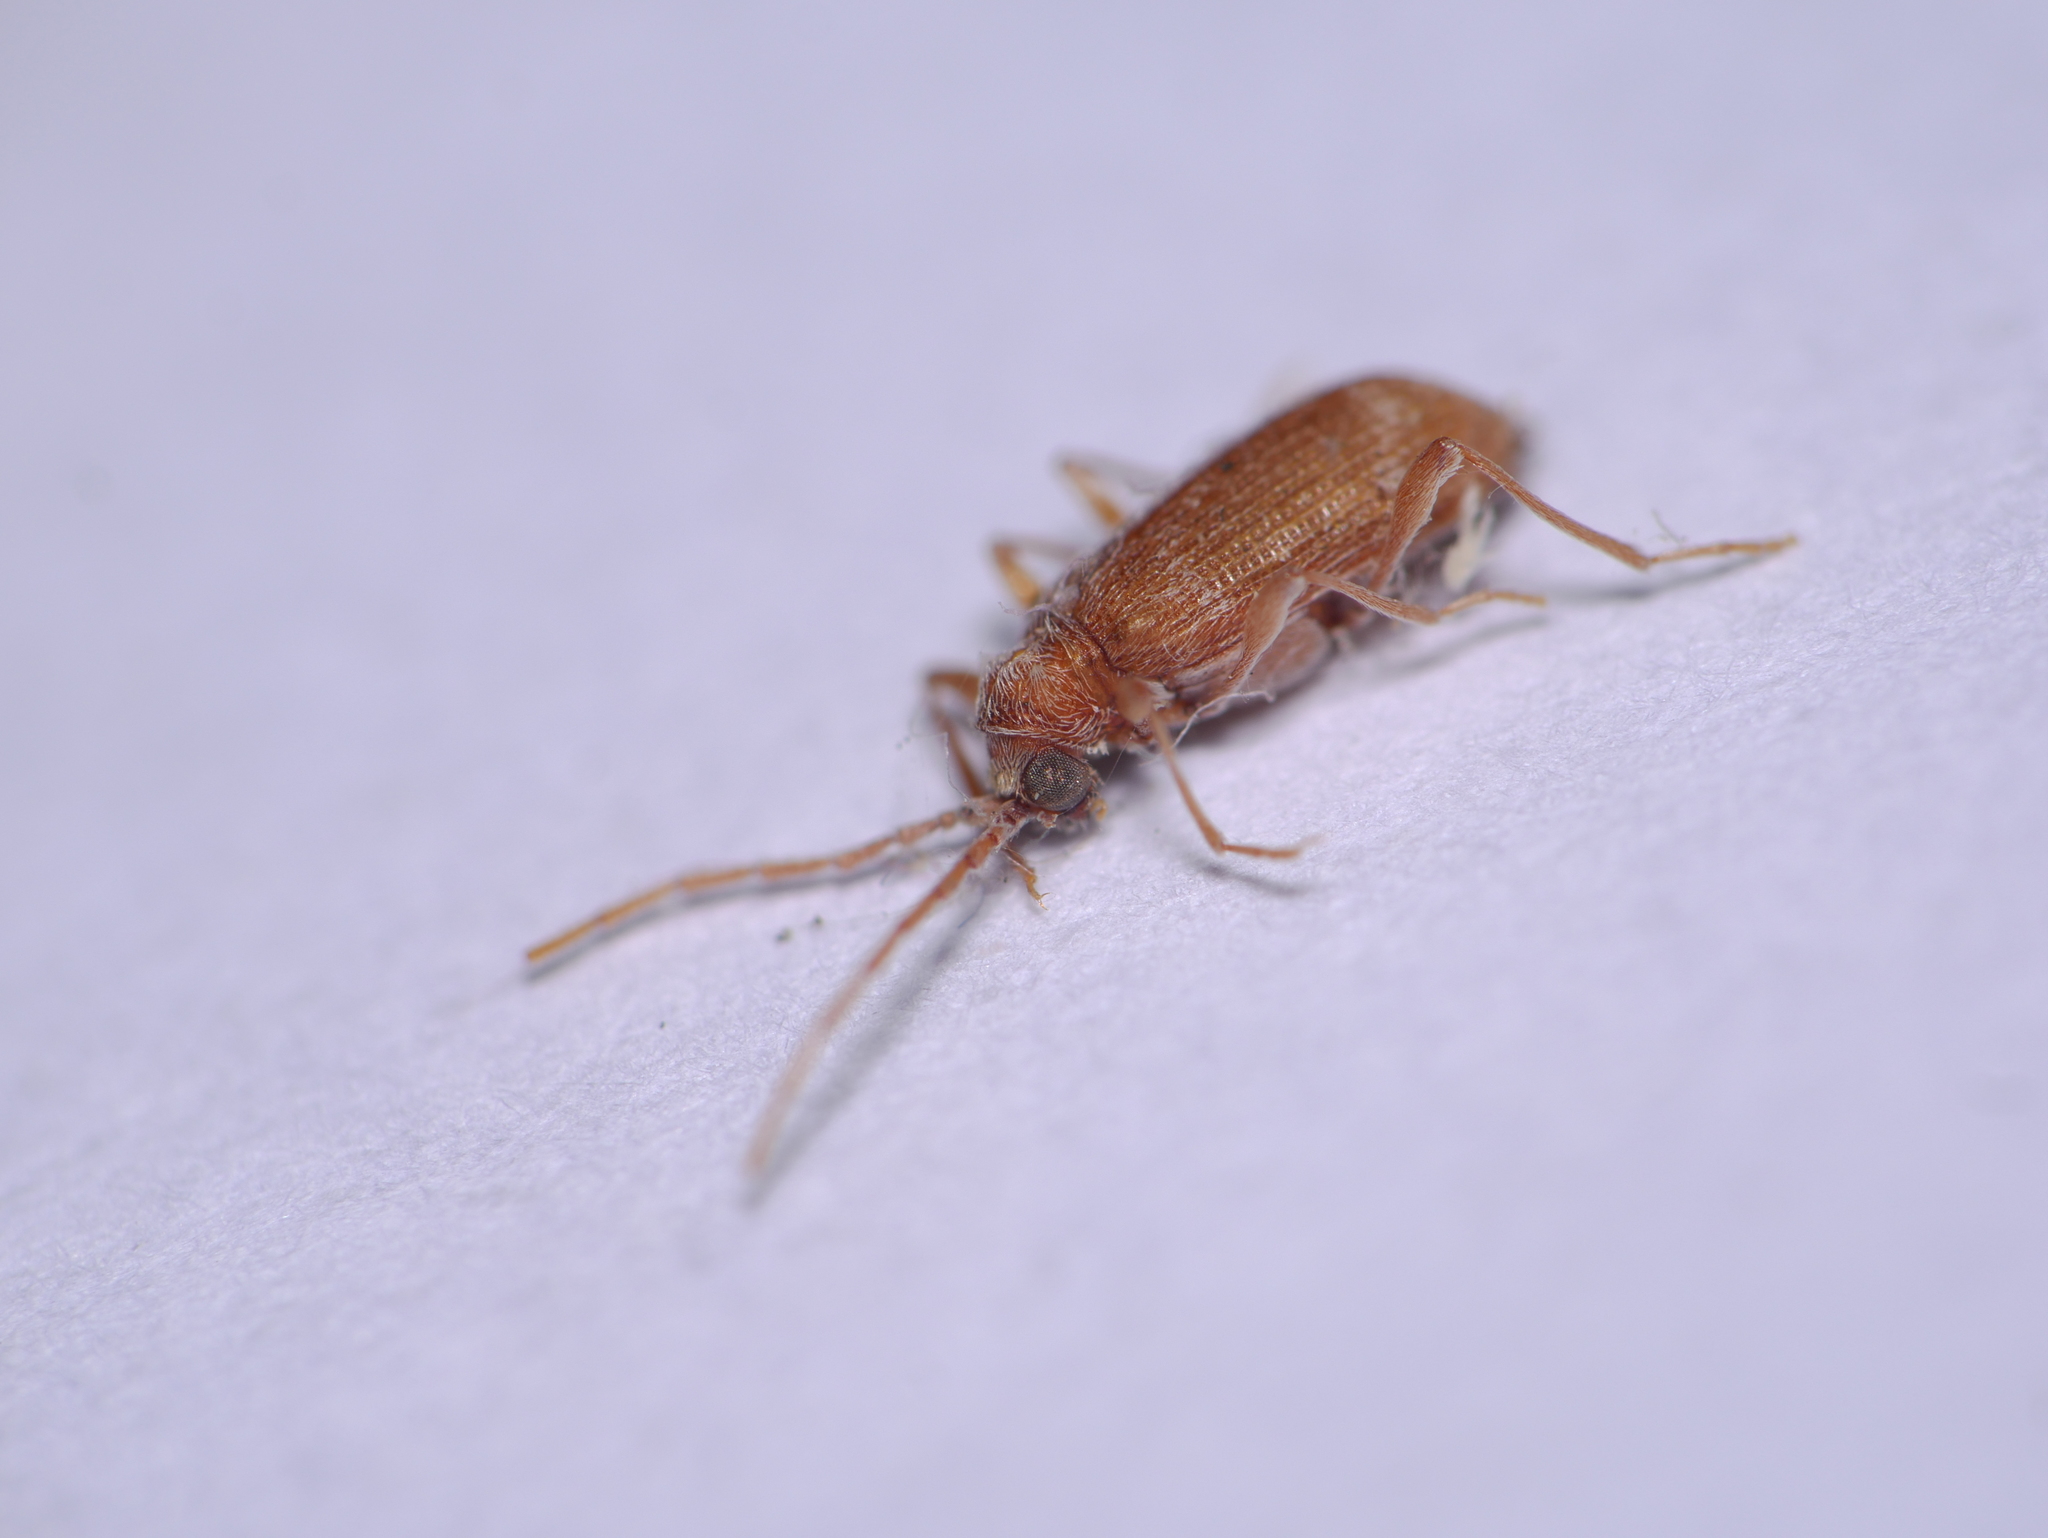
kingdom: Animalia
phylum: Arthropoda
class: Insecta
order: Coleoptera
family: Ptinidae
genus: Ptinus
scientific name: Ptinus fur
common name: White-marked spider beetle
